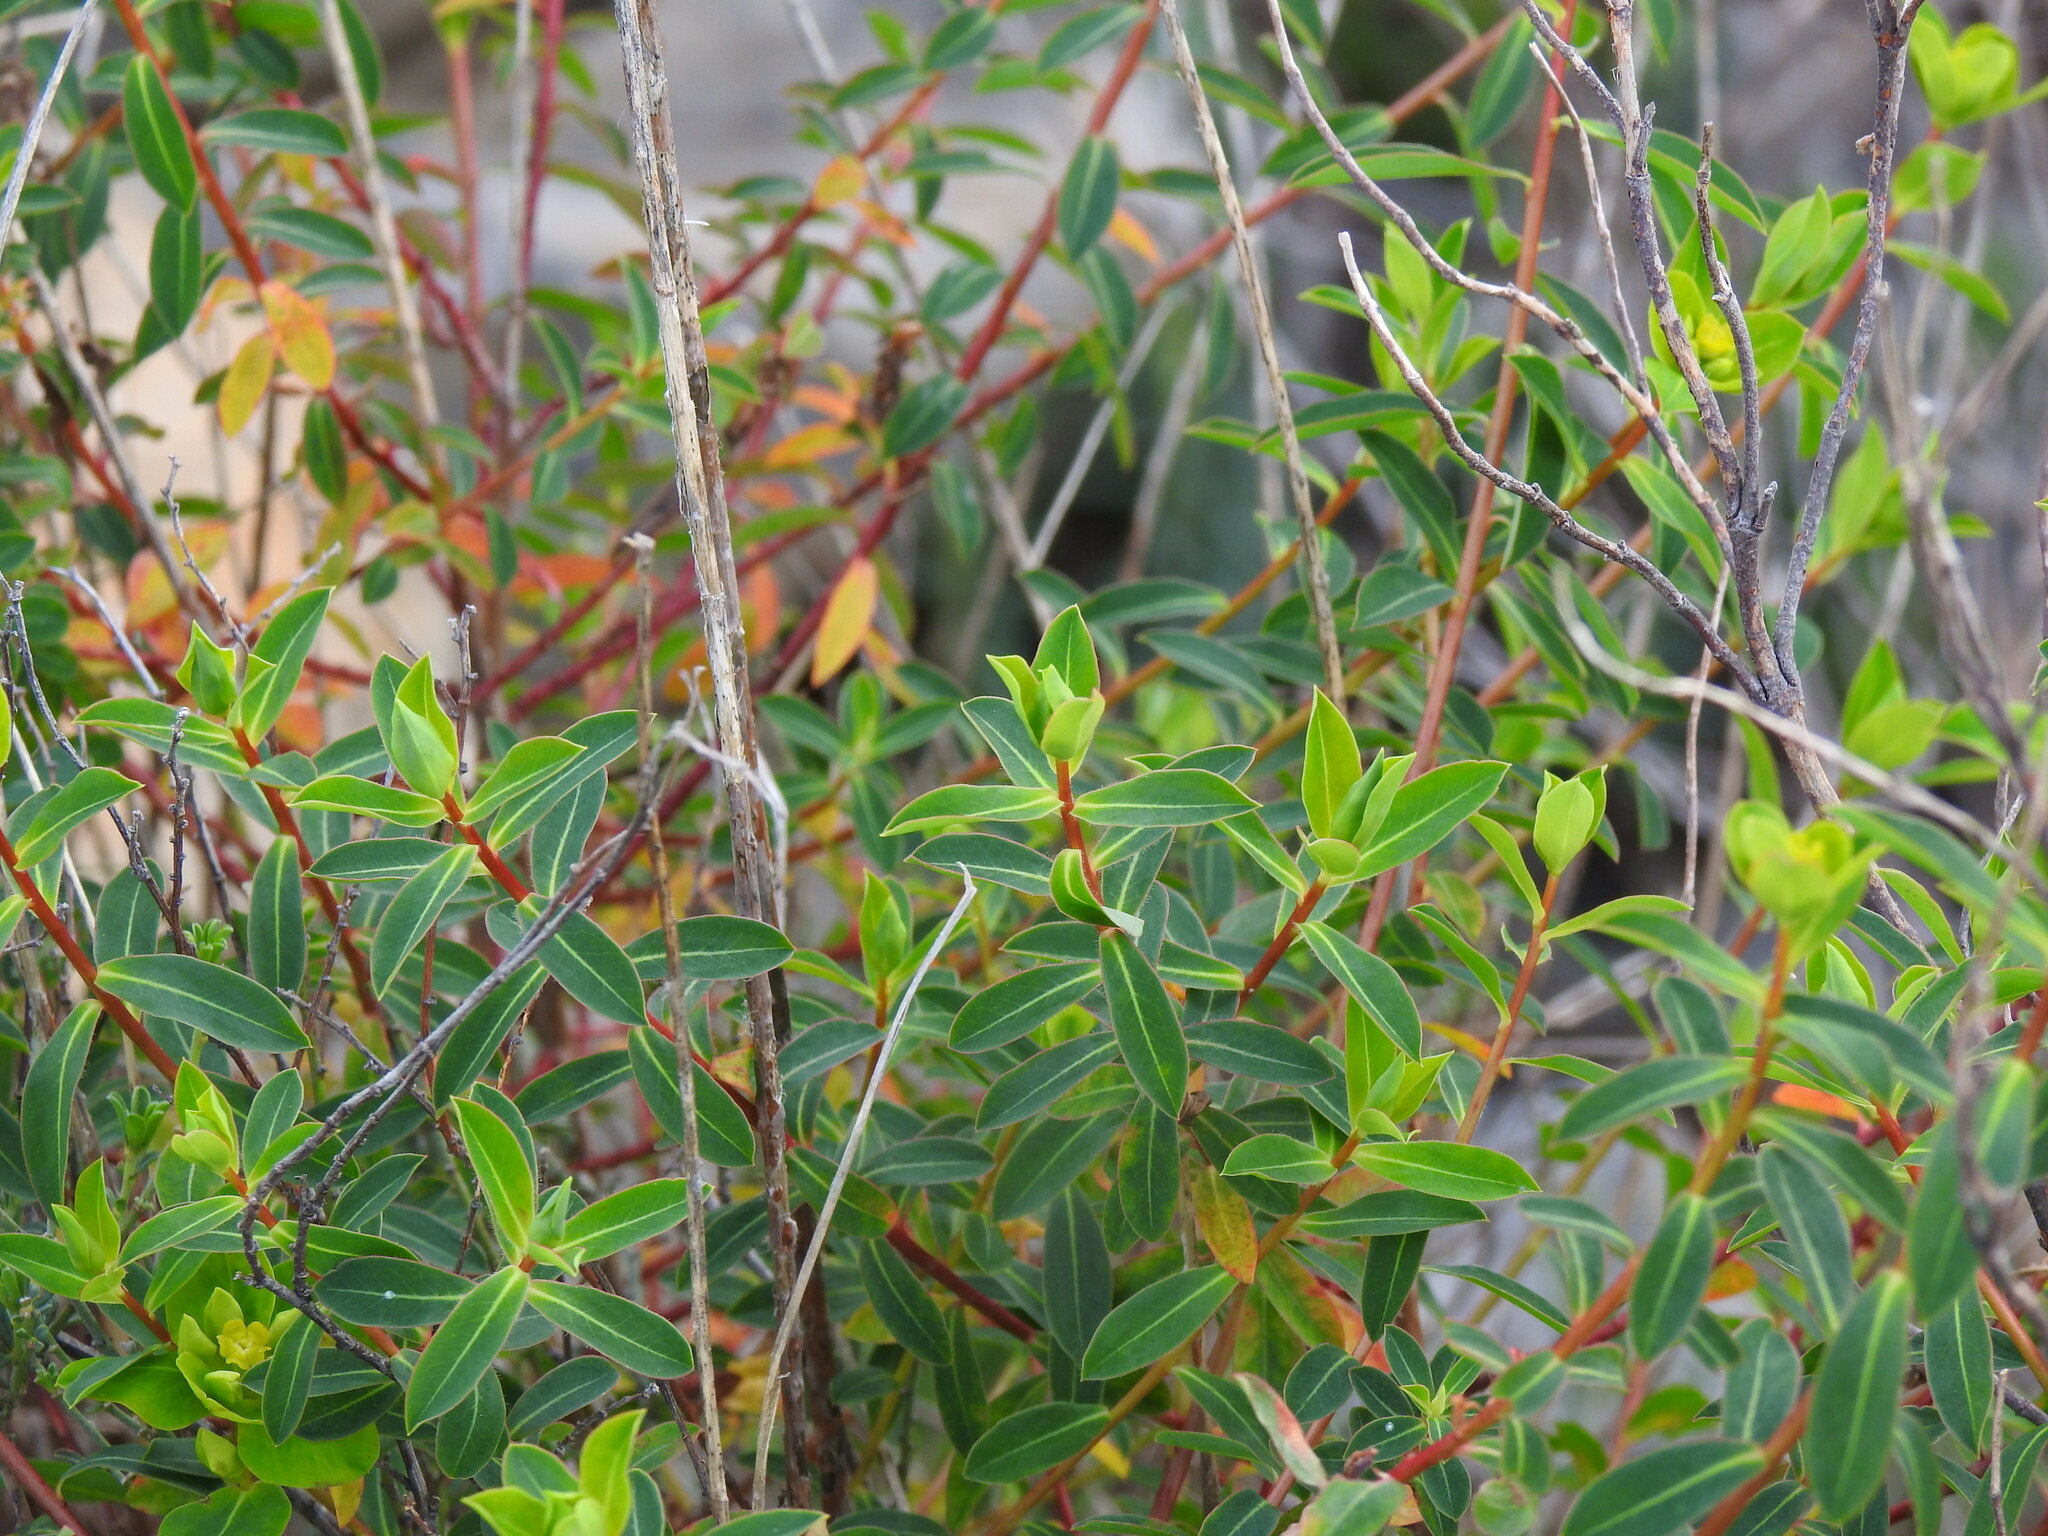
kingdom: Plantae
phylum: Tracheophyta
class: Magnoliopsida
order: Malpighiales
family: Euphorbiaceae
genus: Euphorbia
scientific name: Euphorbia clementei
